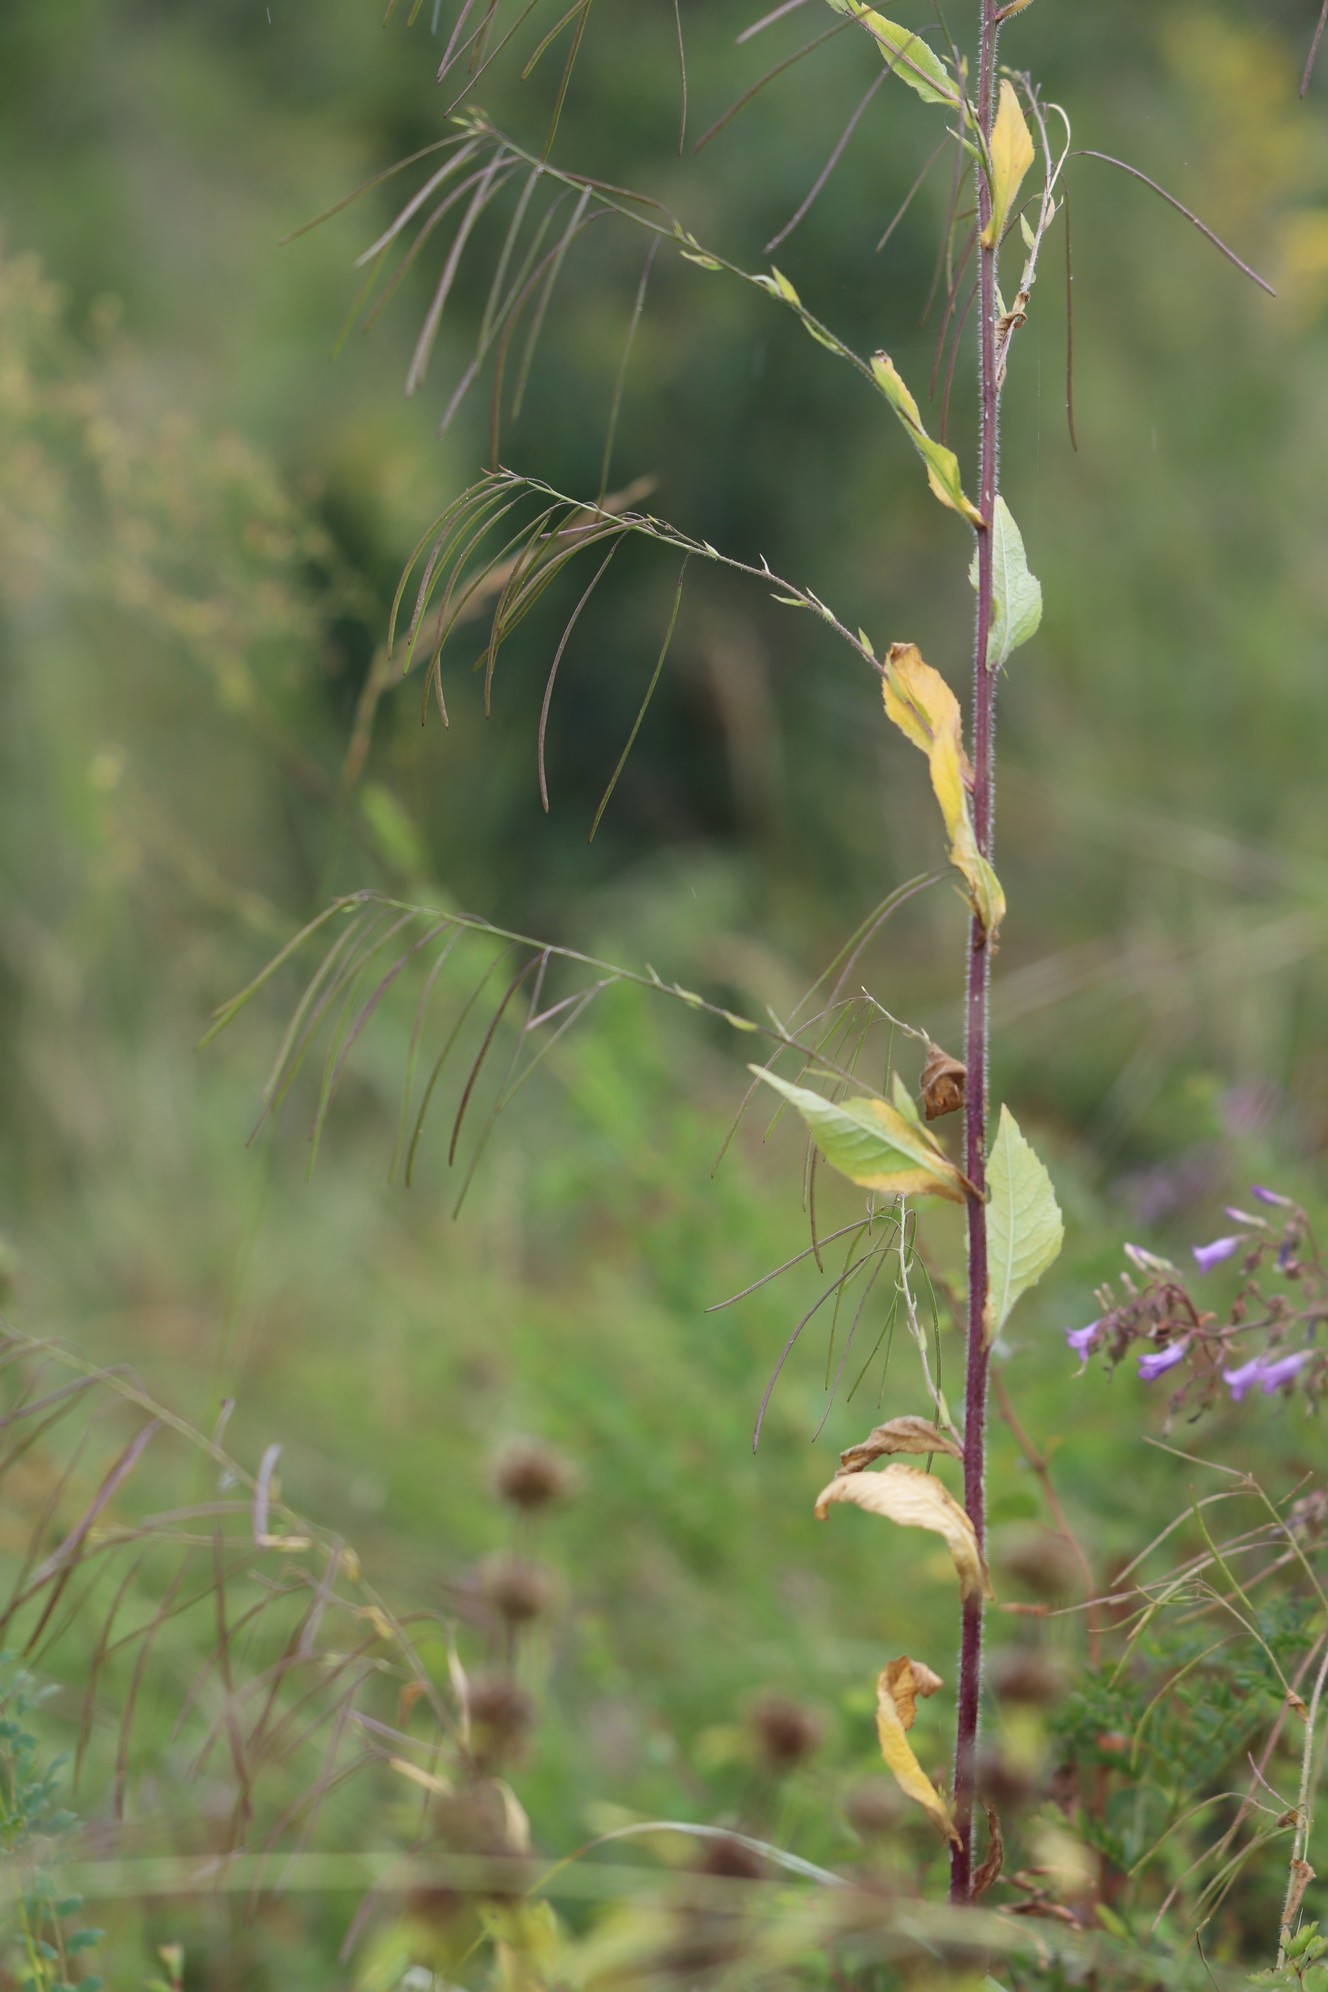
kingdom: Plantae
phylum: Tracheophyta
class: Magnoliopsida
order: Brassicales
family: Brassicaceae
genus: Catolobus
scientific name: Catolobus pendulus
